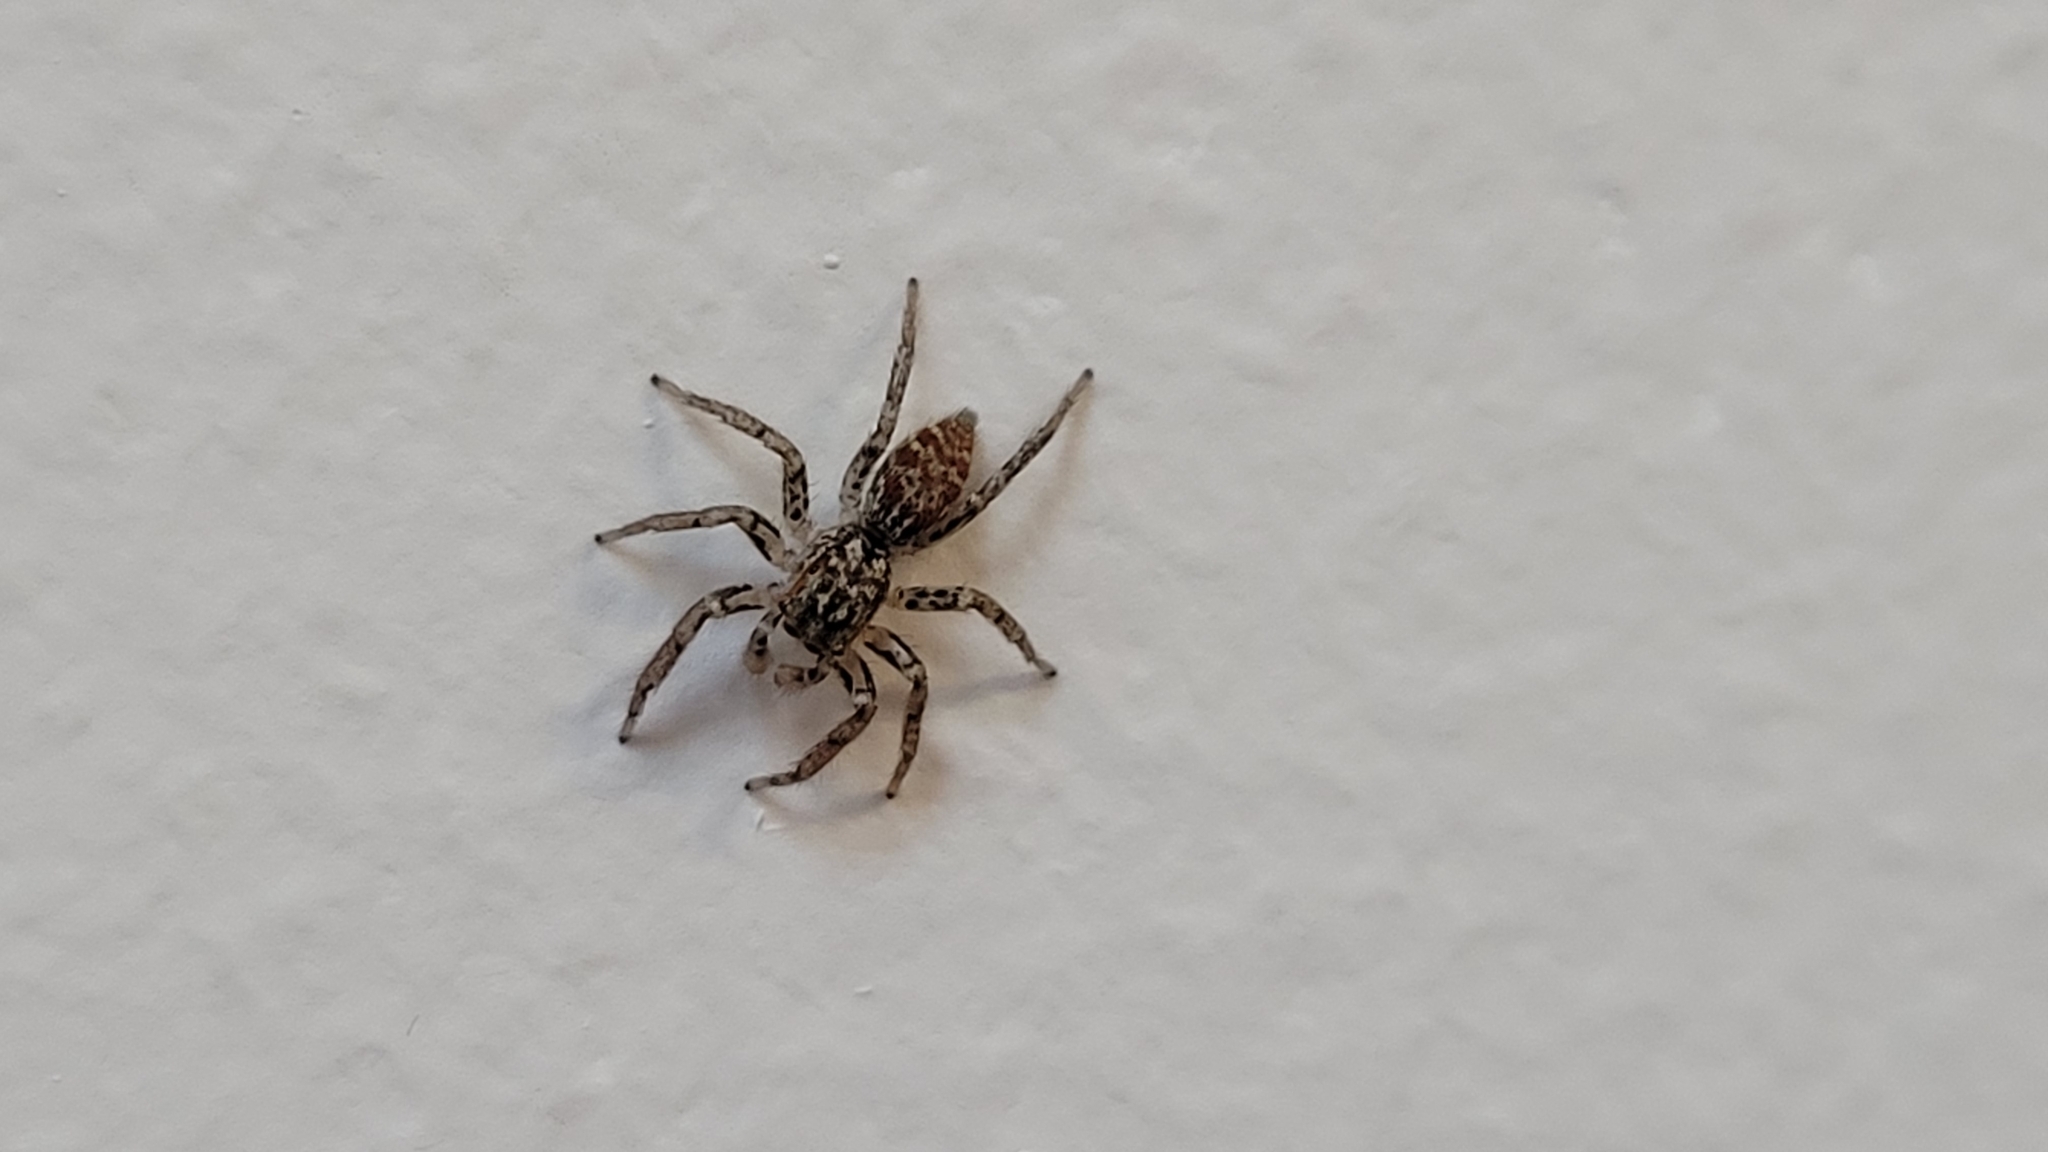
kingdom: Animalia
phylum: Arthropoda
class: Arachnida
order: Araneae
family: Salticidae
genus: Maevia
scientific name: Maevia inclemens
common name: Dimorphic jumper
